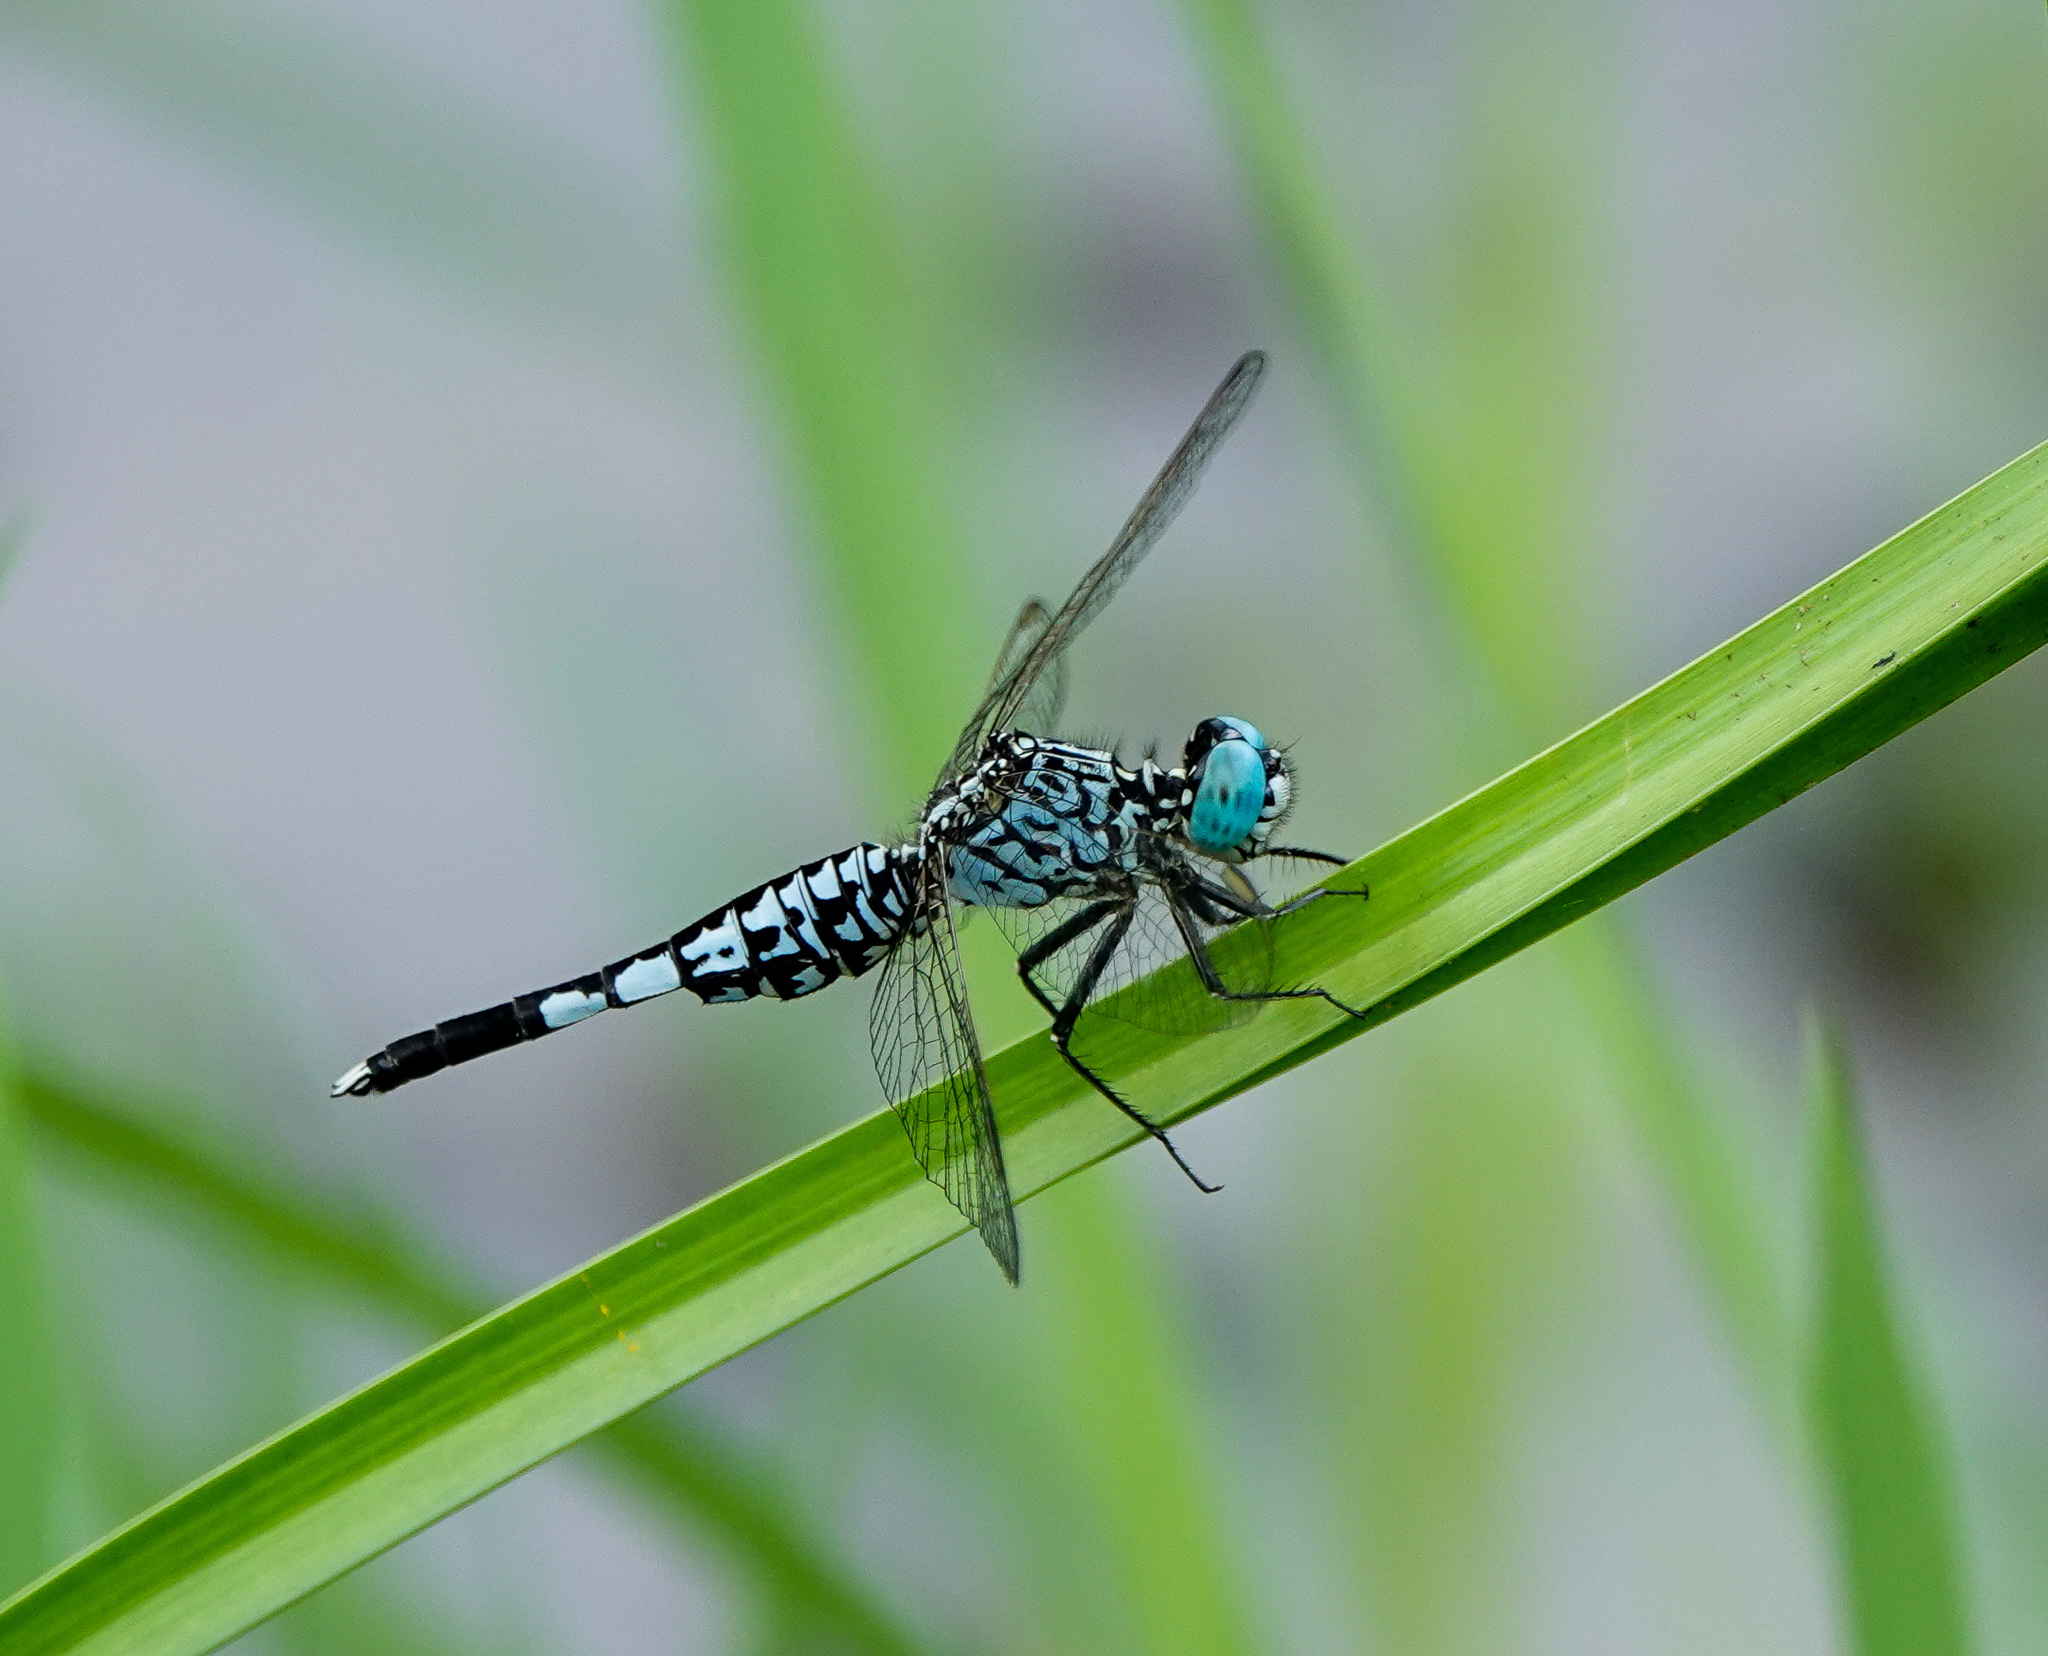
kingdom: Animalia
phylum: Arthropoda
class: Insecta
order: Odonata
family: Libellulidae
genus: Acisoma
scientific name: Acisoma panorpoides
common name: Asian pintail
